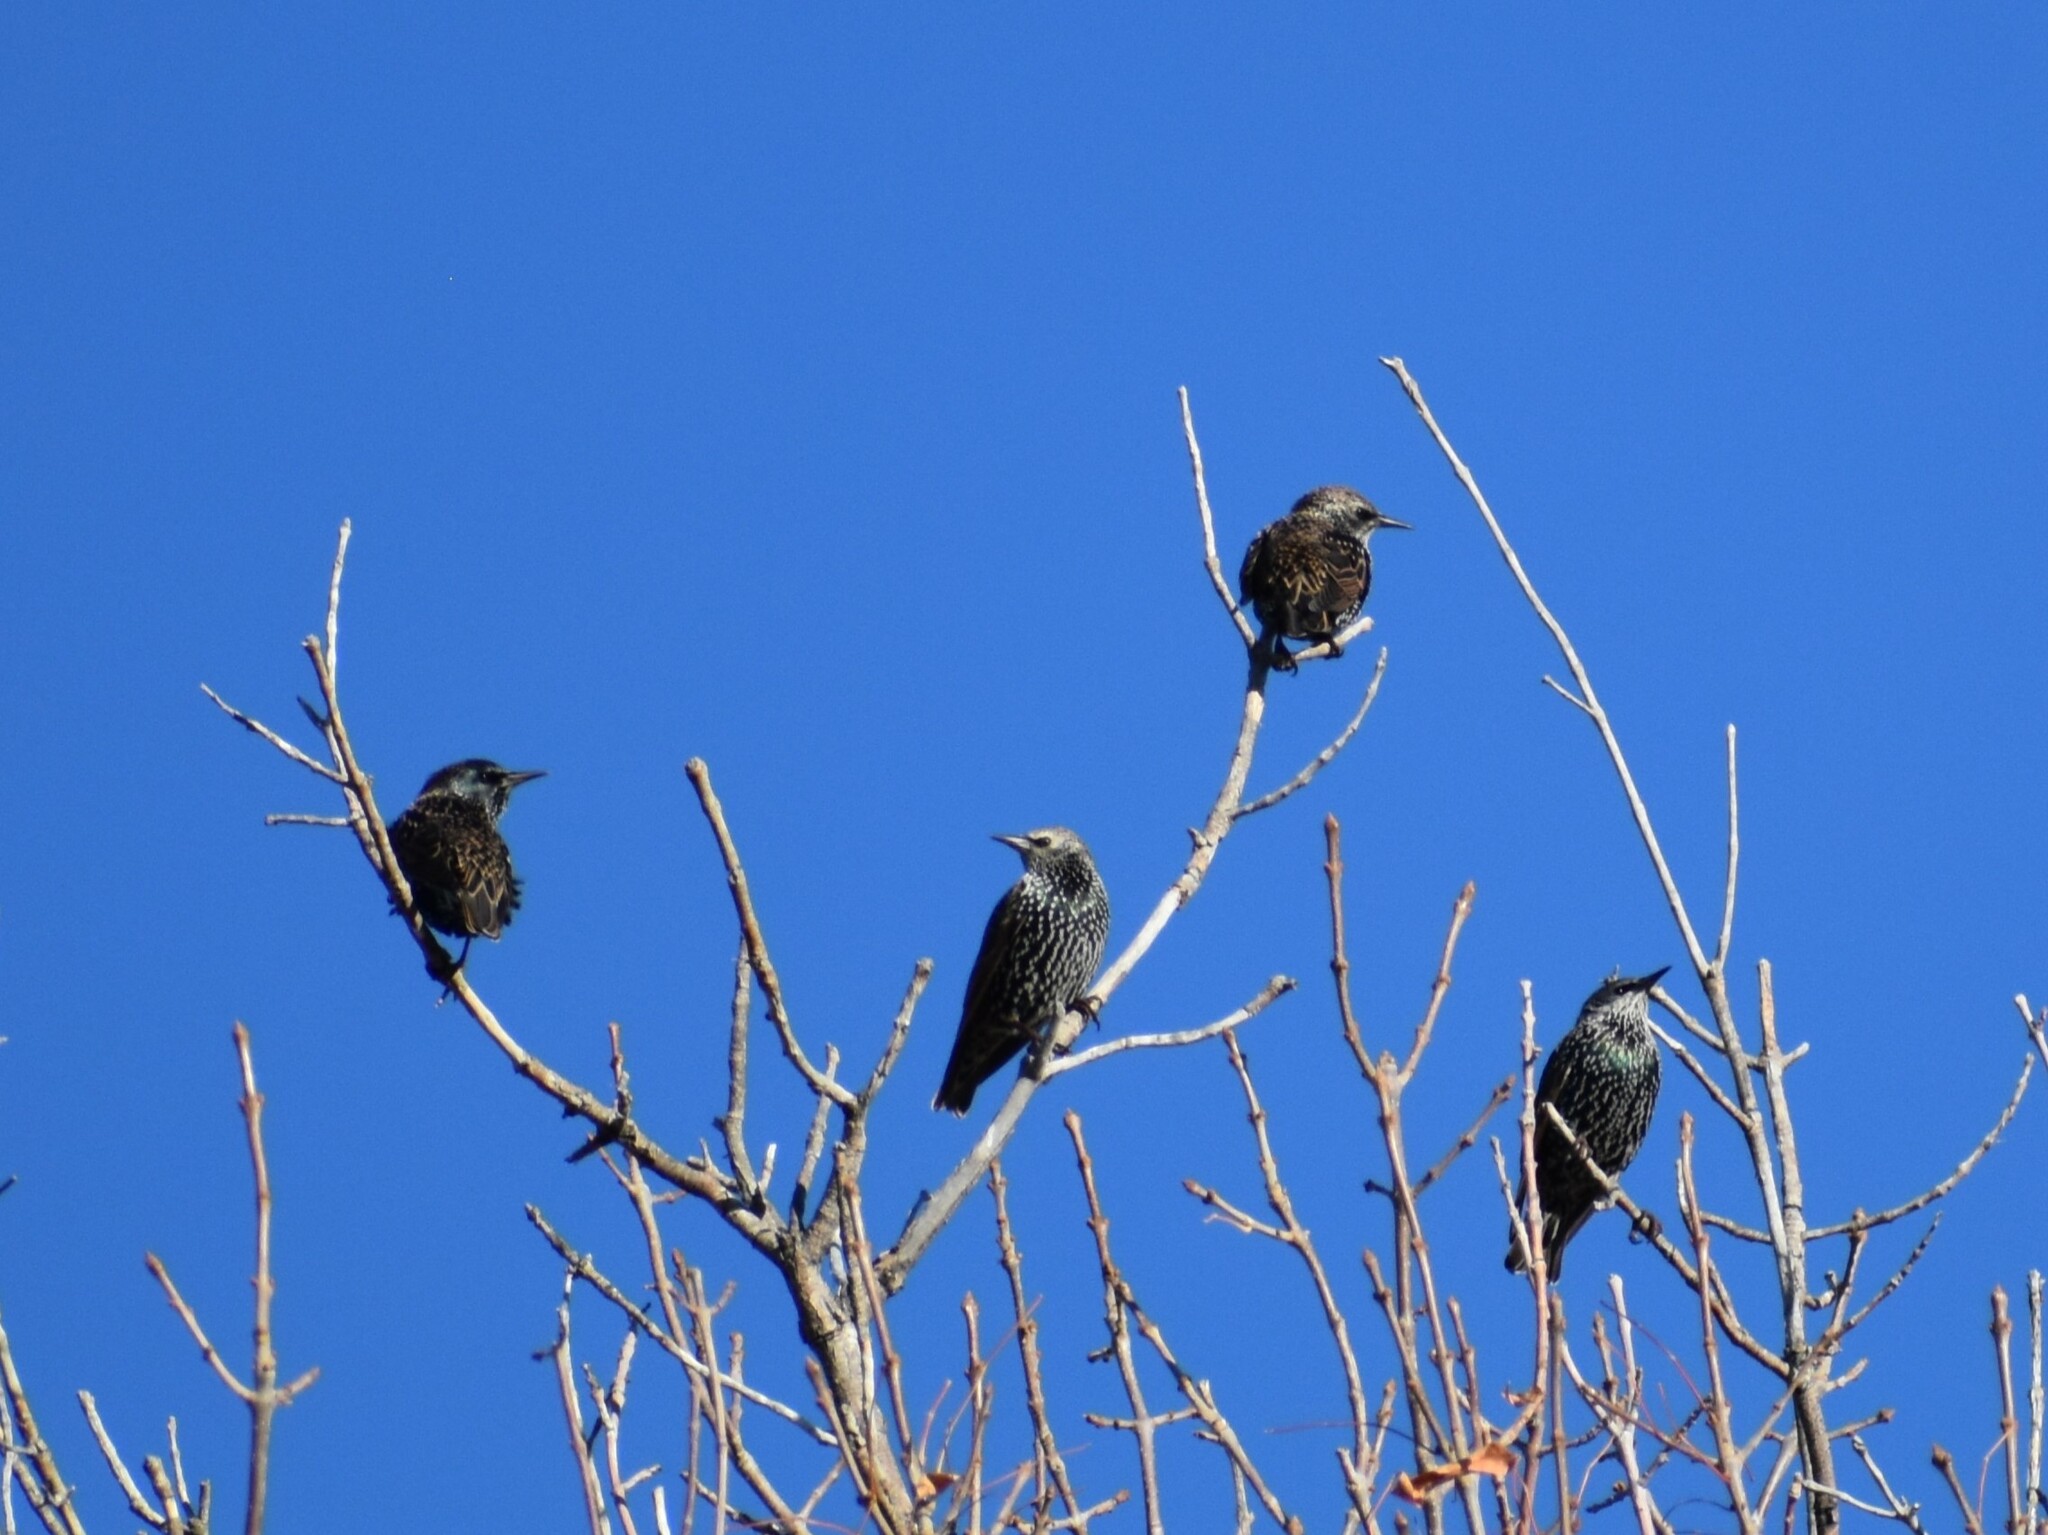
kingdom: Animalia
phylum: Chordata
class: Aves
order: Passeriformes
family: Sturnidae
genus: Sturnus
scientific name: Sturnus vulgaris
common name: Common starling
